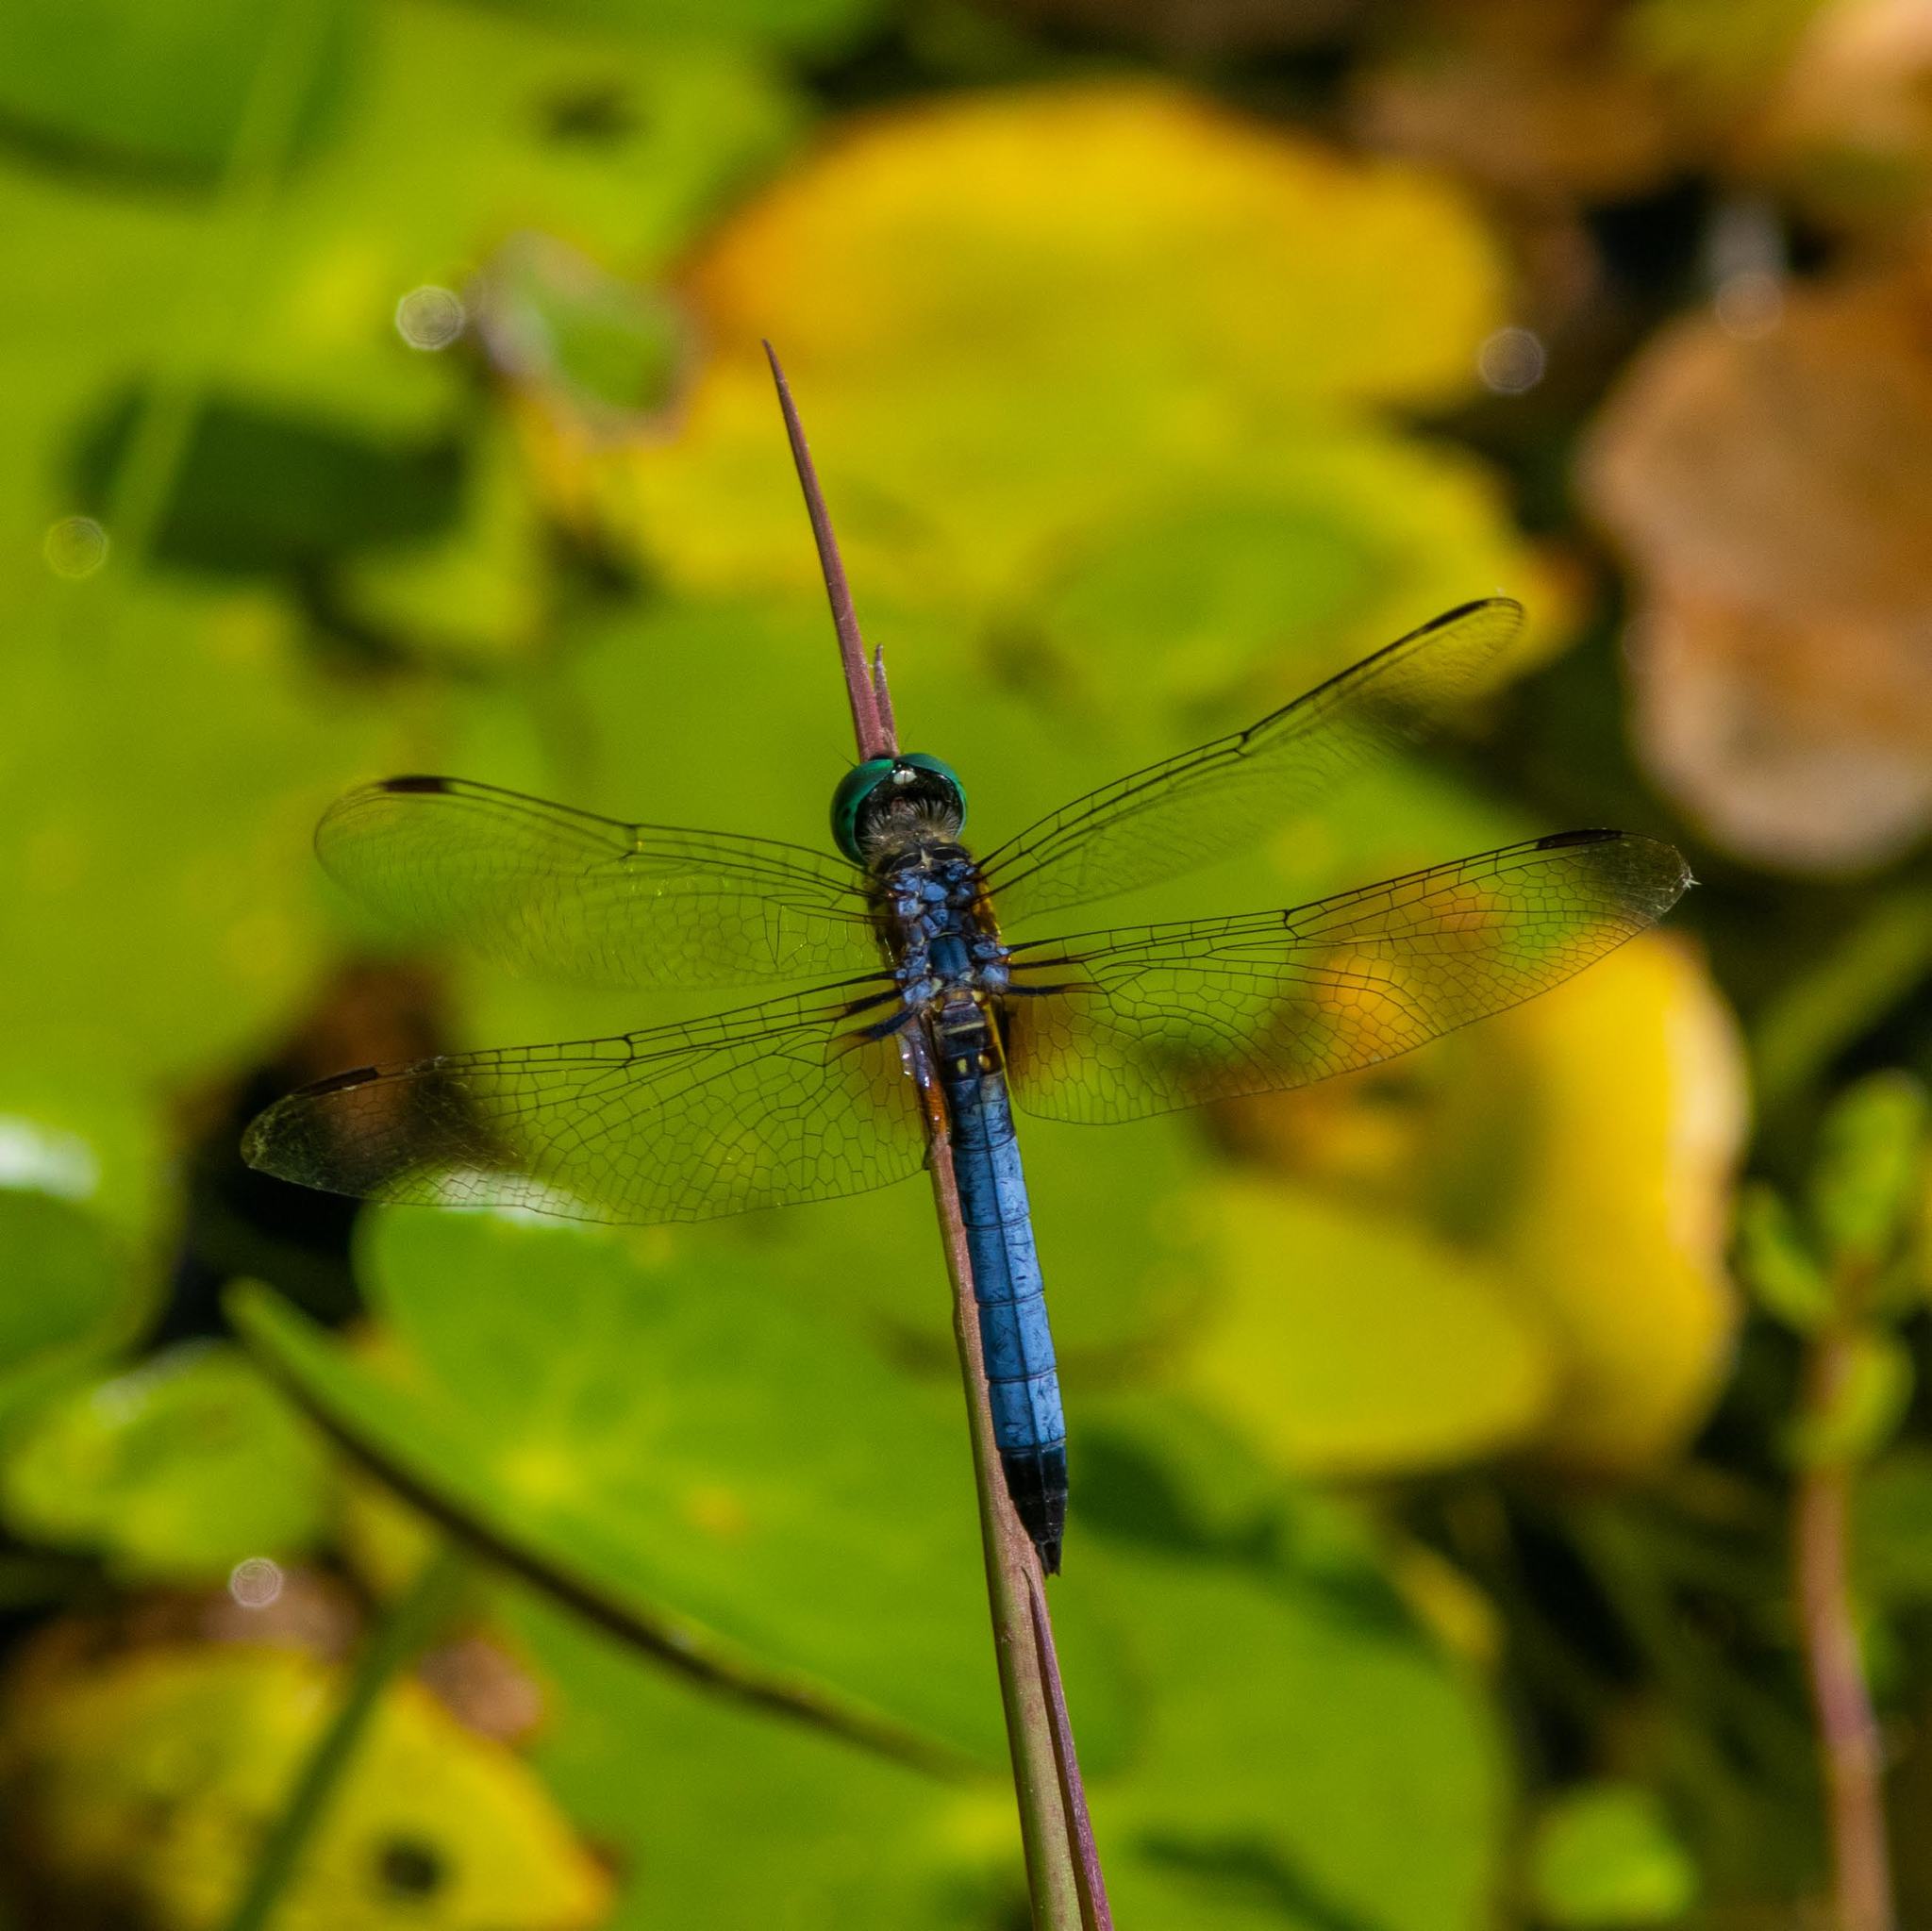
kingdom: Animalia
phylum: Arthropoda
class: Insecta
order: Odonata
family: Libellulidae
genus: Pachydiplax
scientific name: Pachydiplax longipennis
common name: Blue dasher
